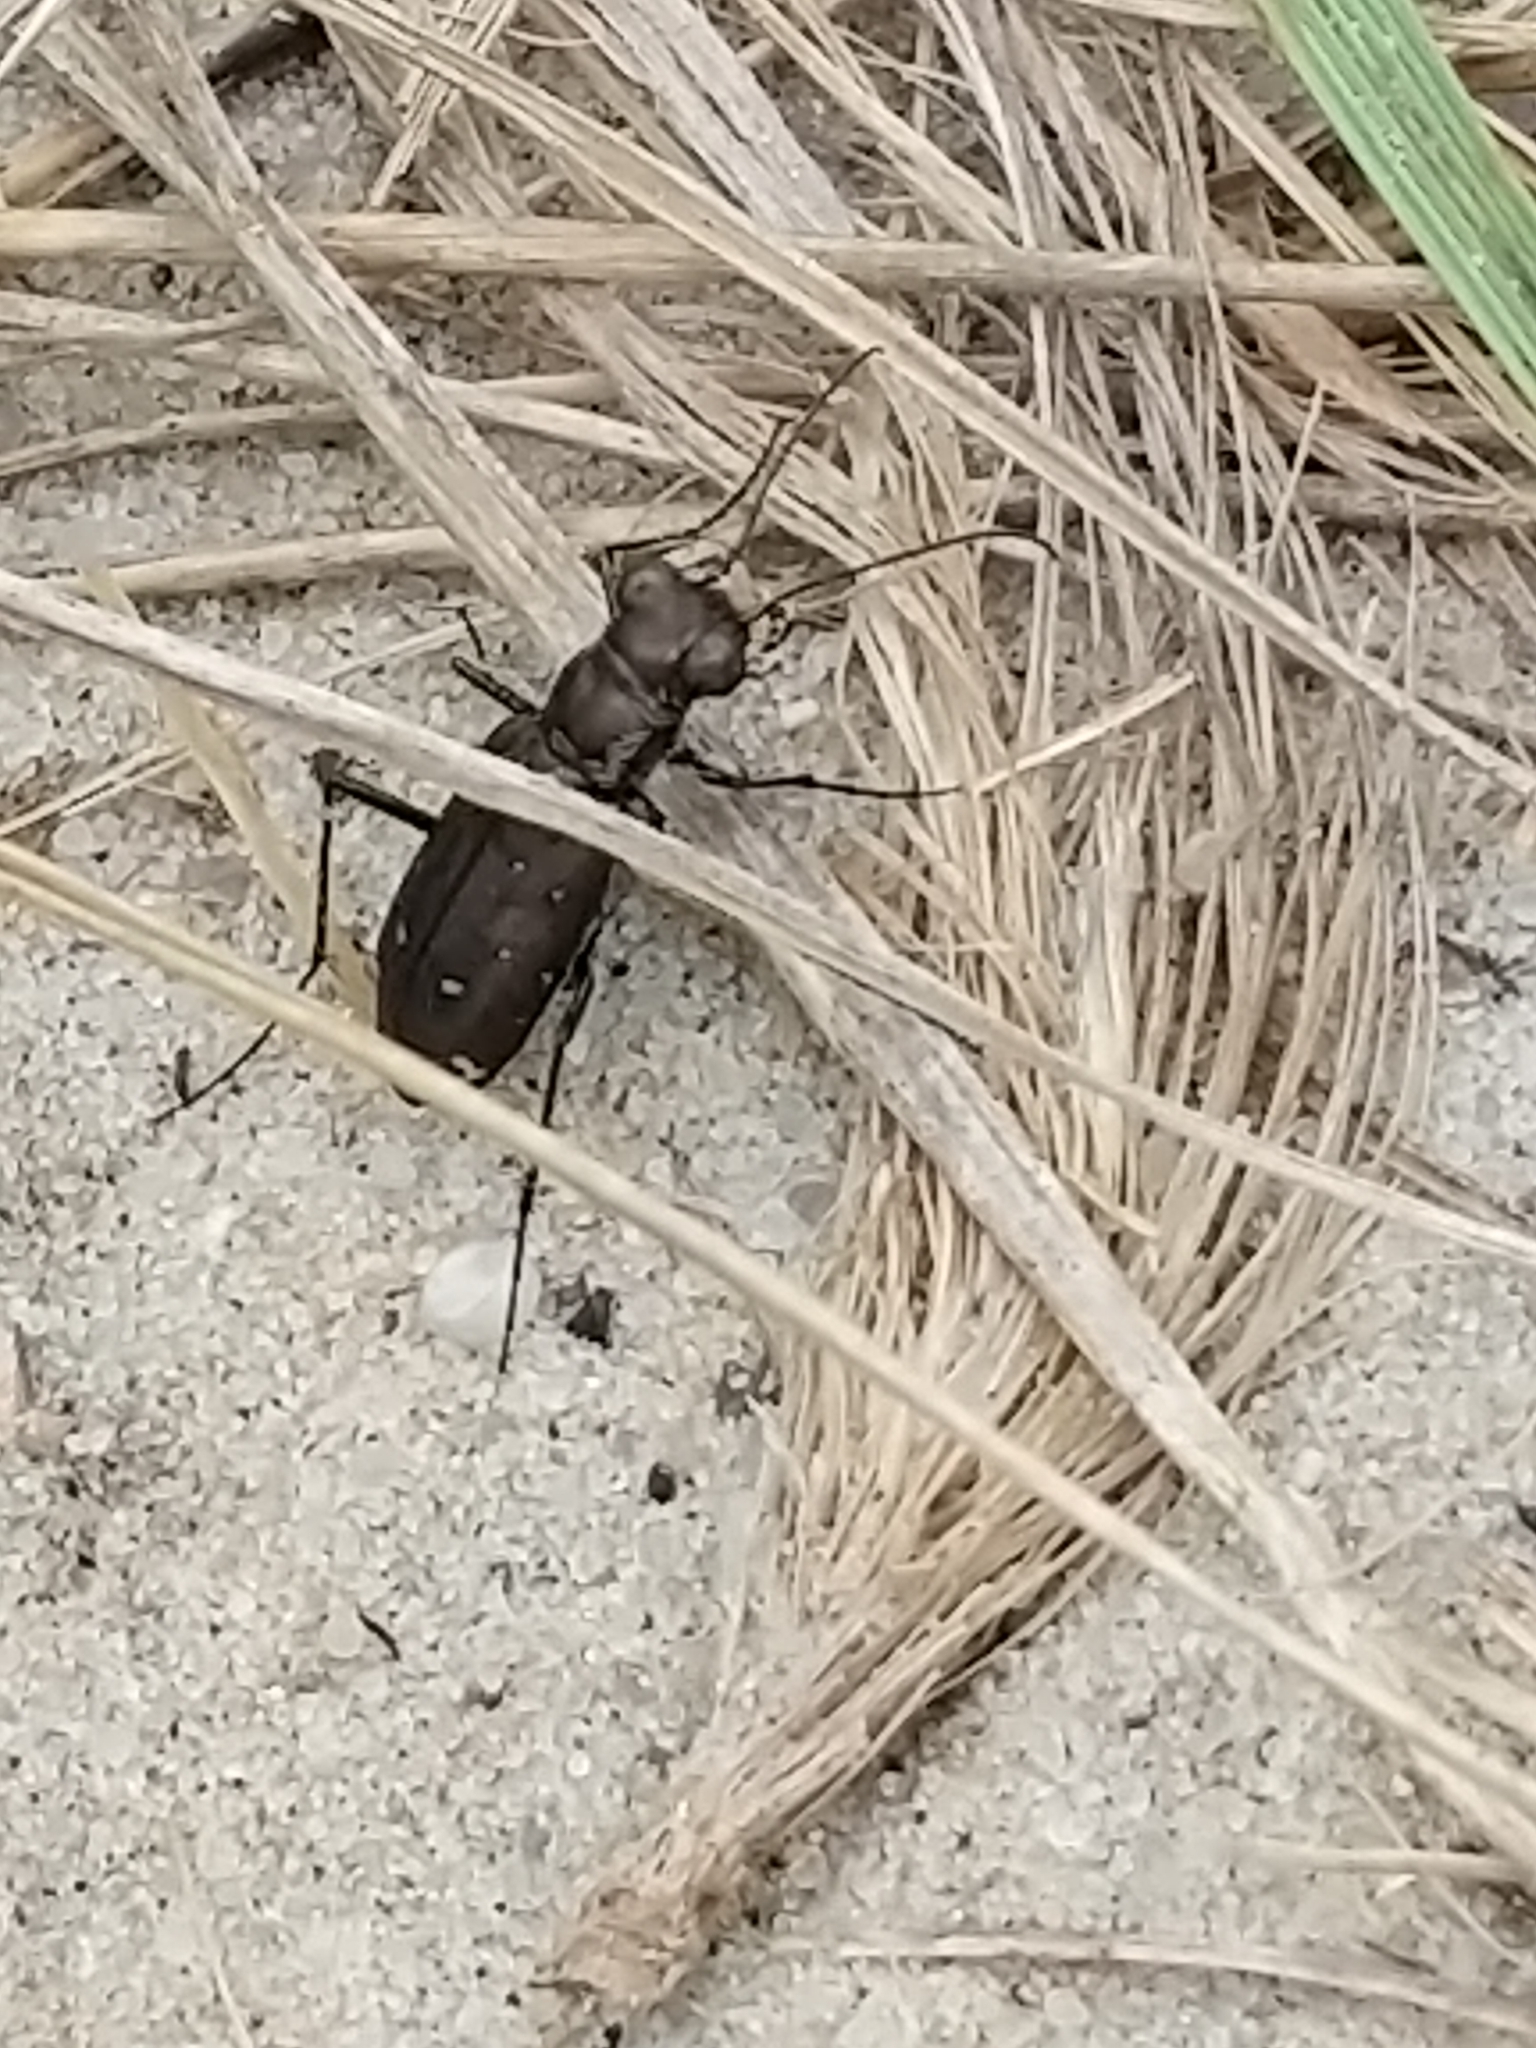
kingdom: Animalia
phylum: Arthropoda
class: Insecta
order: Coleoptera
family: Carabidae
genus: Cicindela
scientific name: Cicindela punctulata
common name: Punctured tiger beetle
